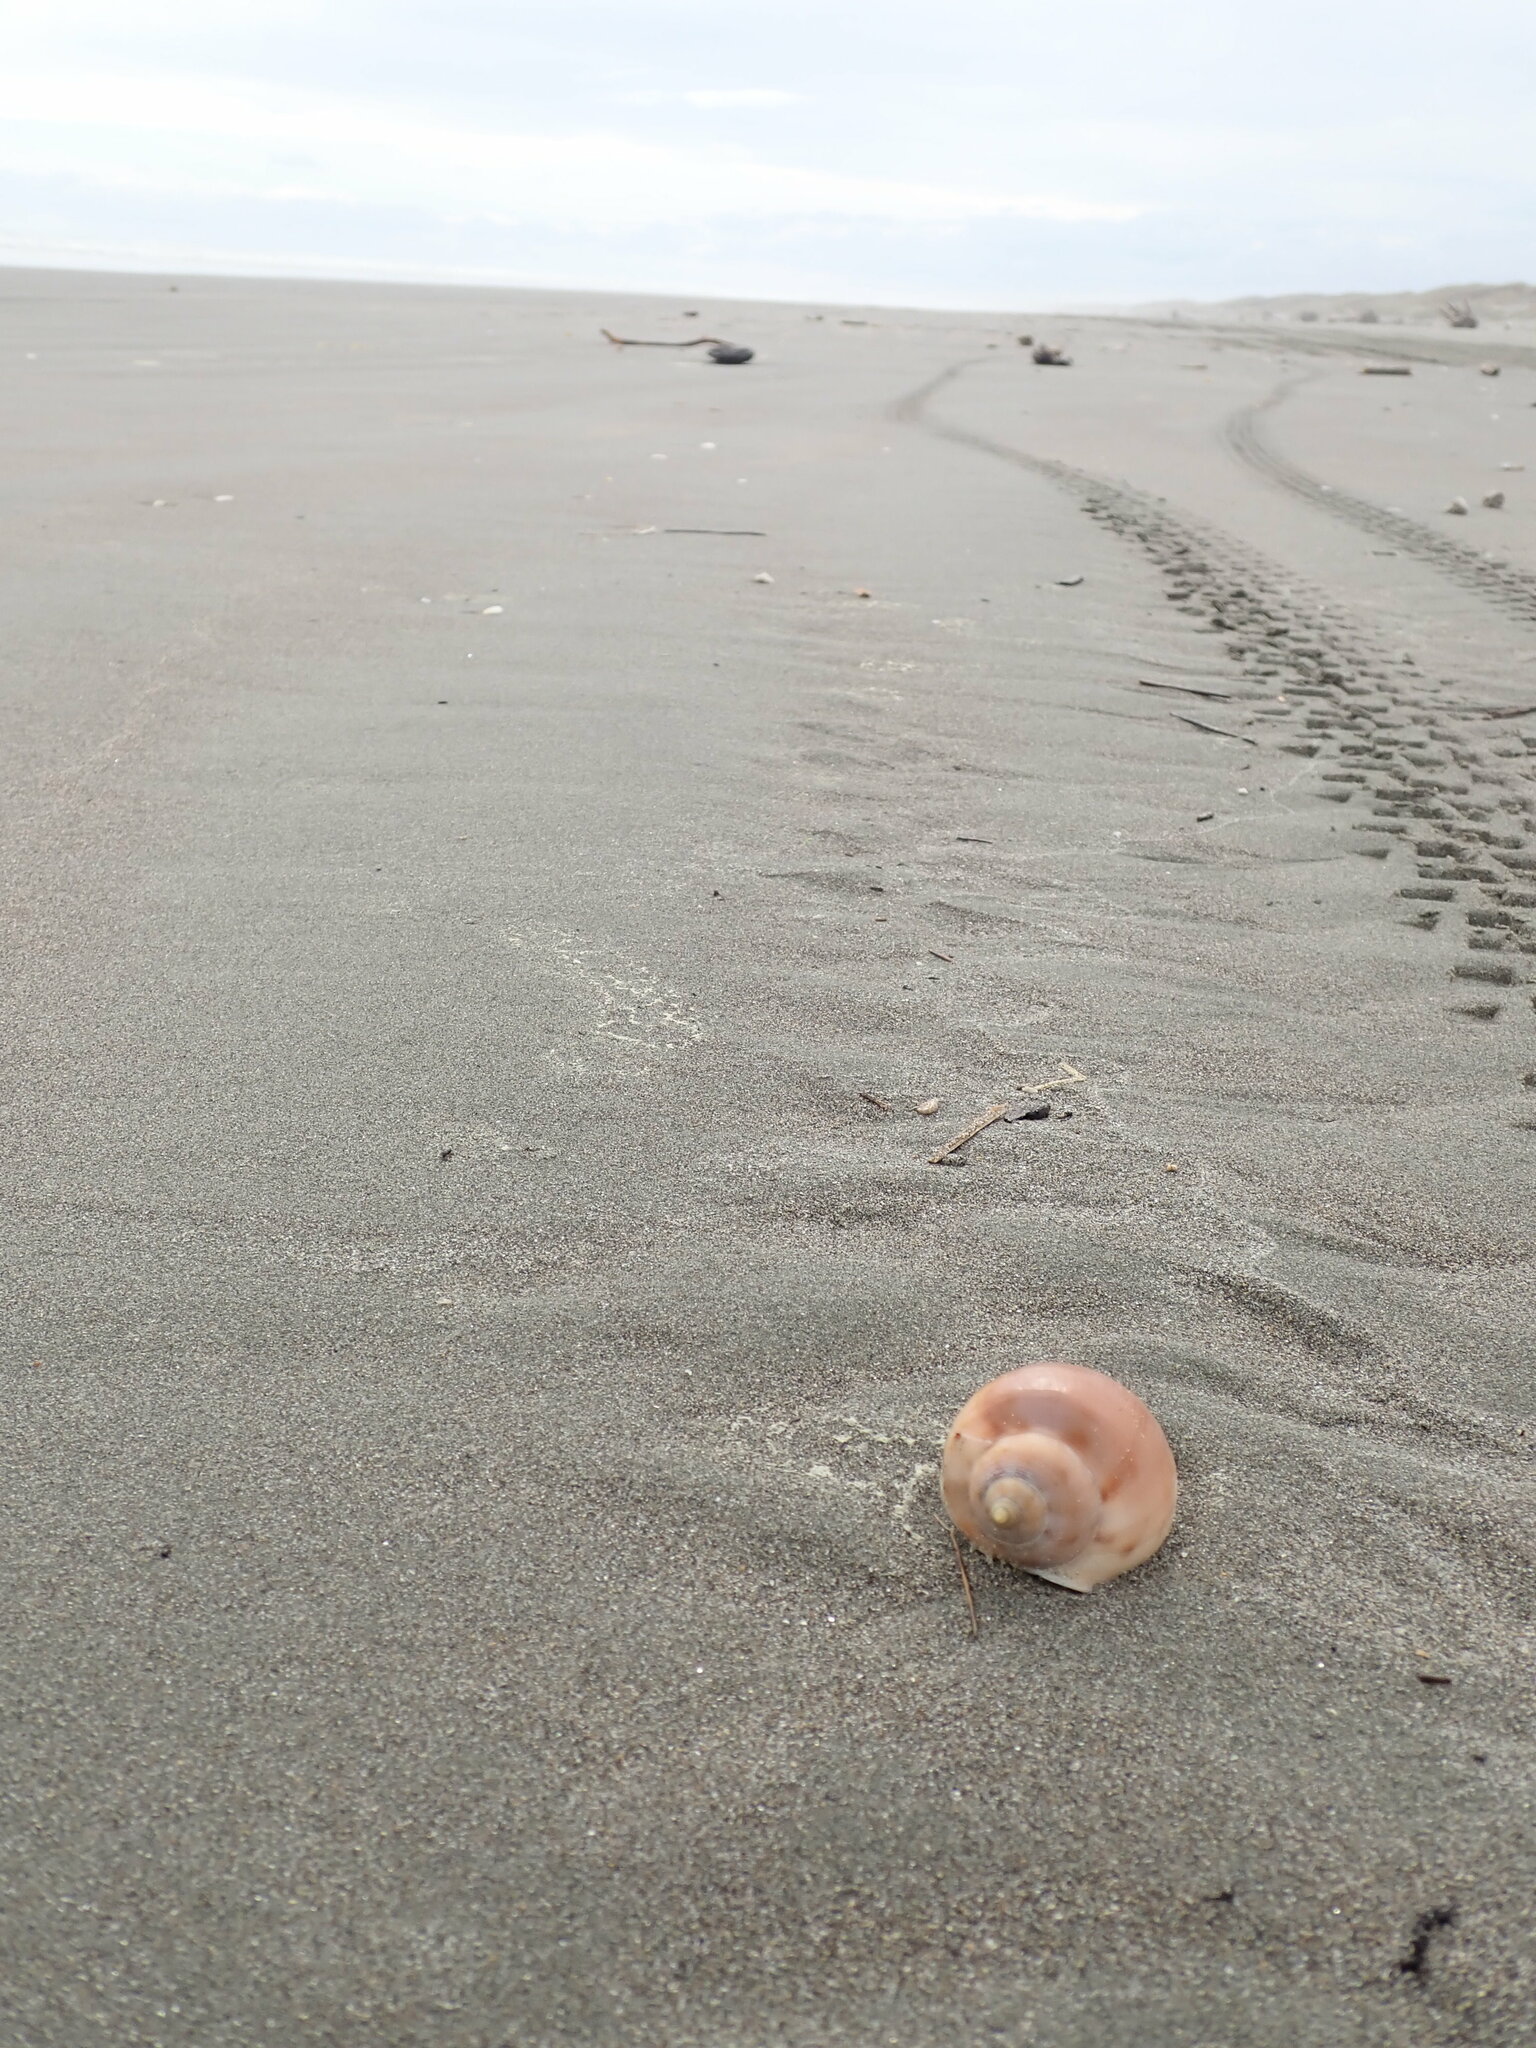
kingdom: Animalia
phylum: Mollusca
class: Gastropoda
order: Littorinimorpha
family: Cassidae
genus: Semicassis
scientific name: Semicassis pyrum
